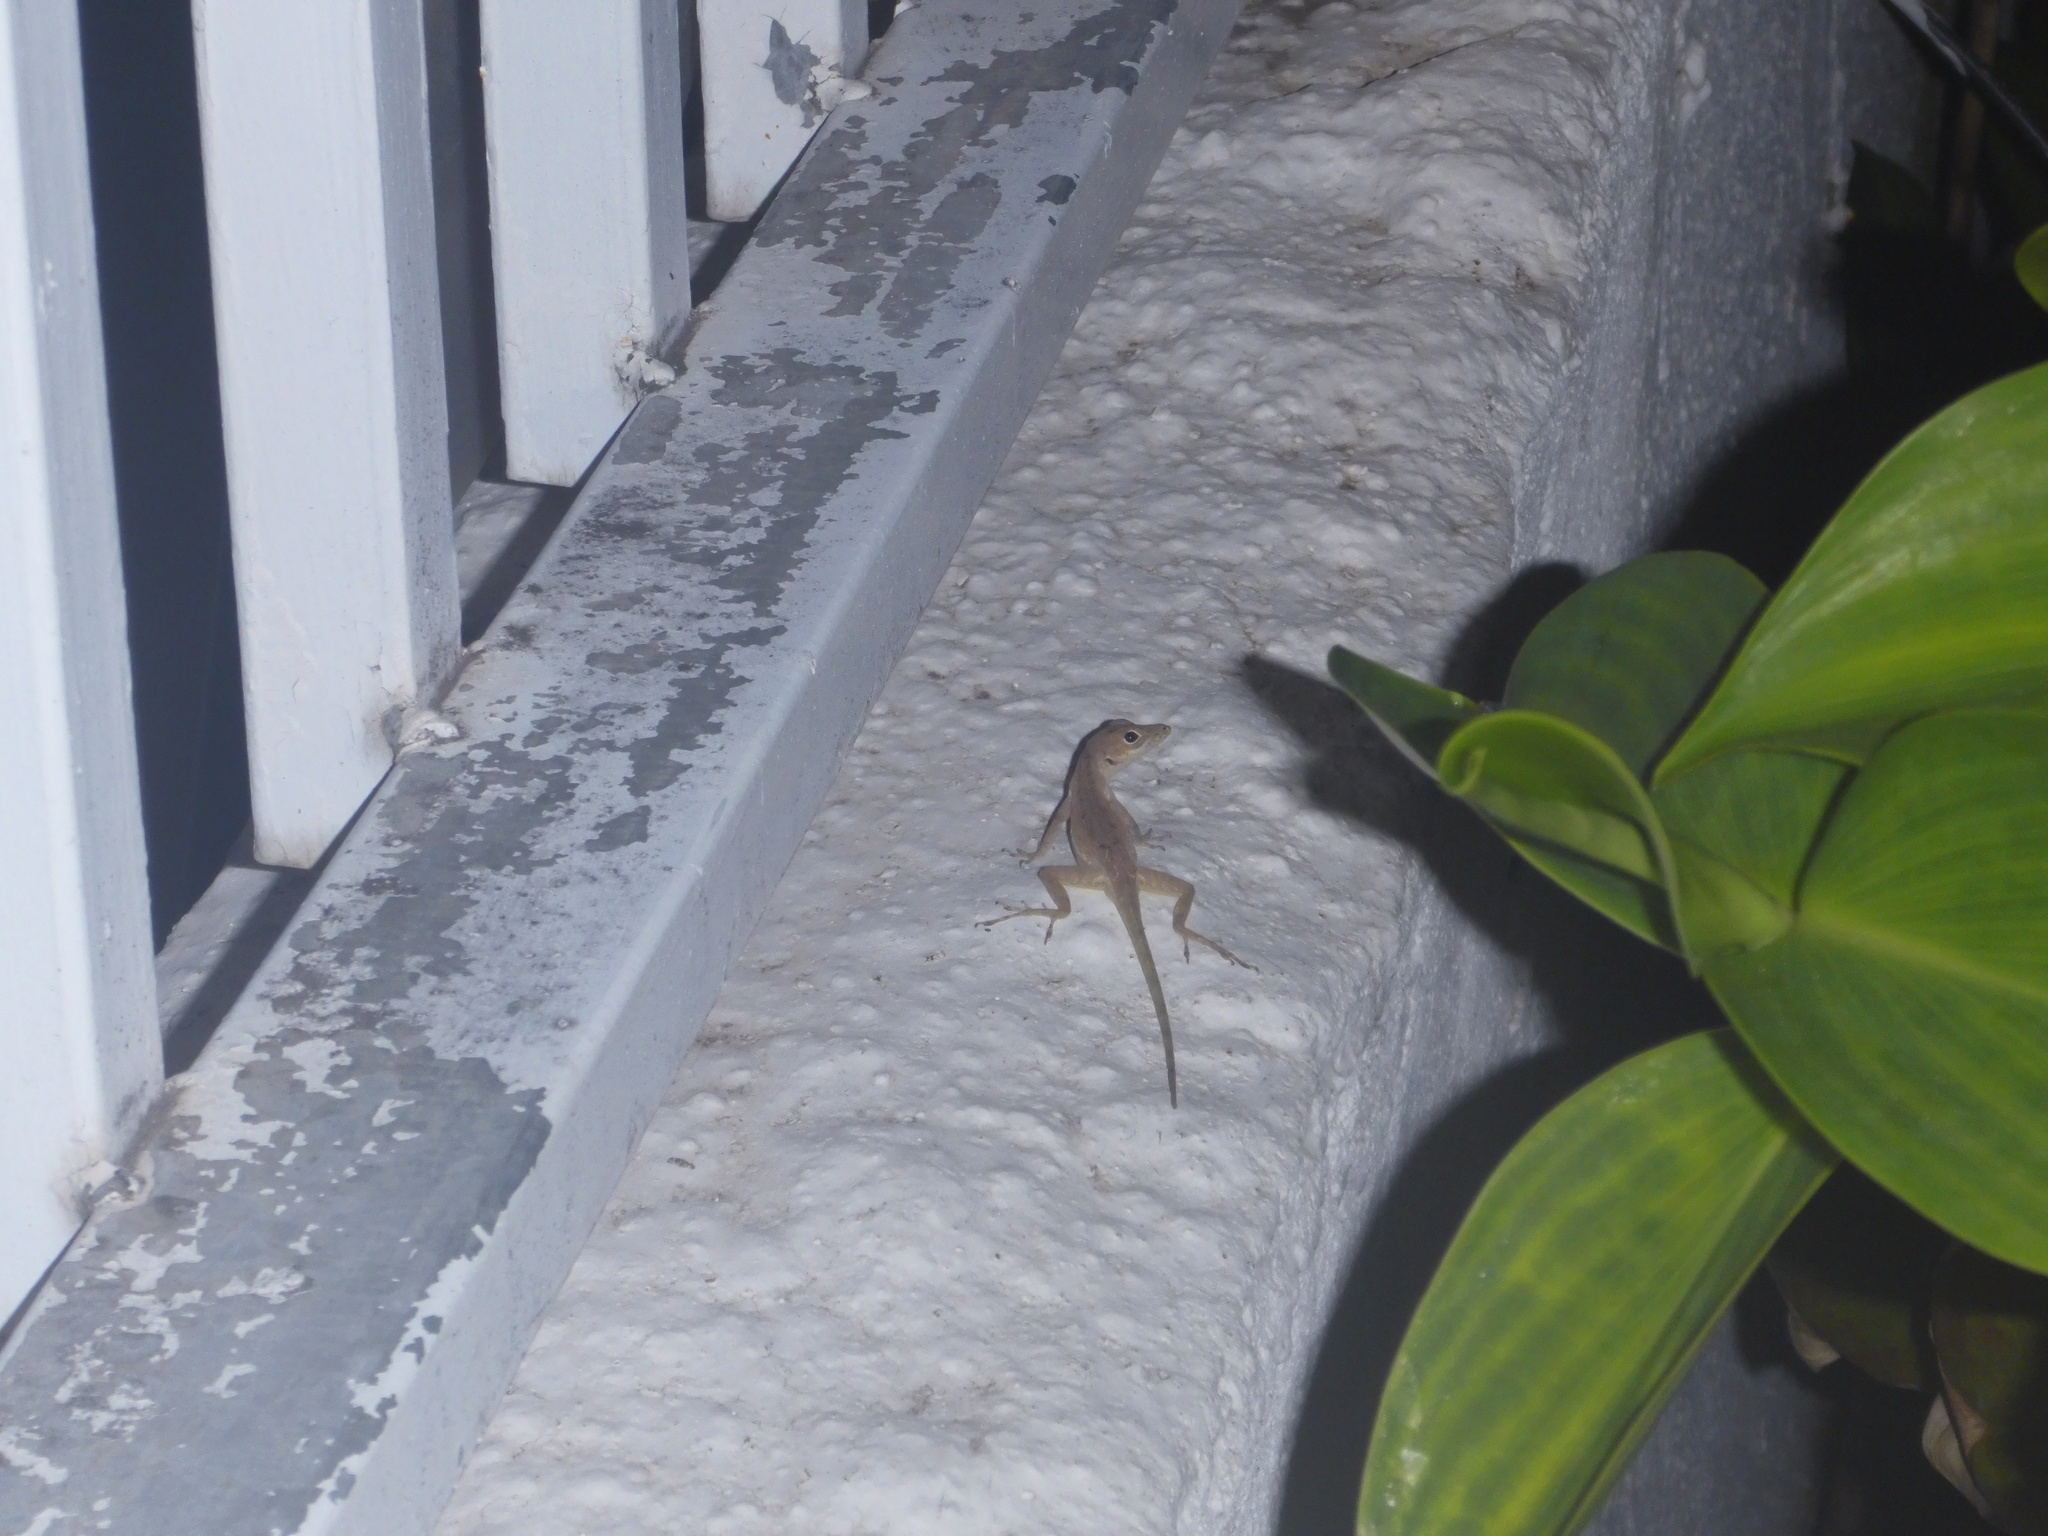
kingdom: Animalia
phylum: Chordata
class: Squamata
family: Dactyloidae
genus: Anolis
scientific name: Anolis gingivinus
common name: Anguilla anole
